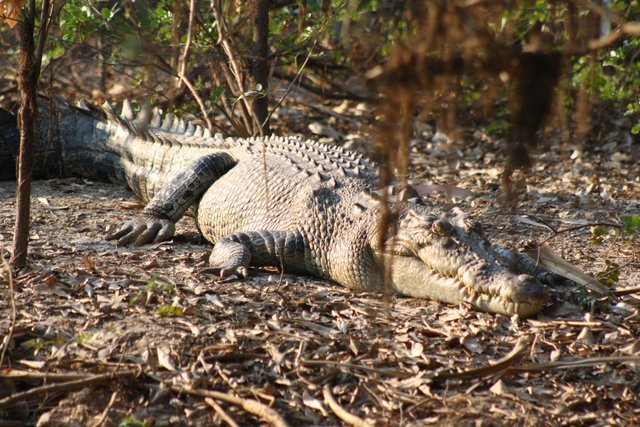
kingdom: Animalia
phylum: Chordata
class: Crocodylia
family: Crocodylidae
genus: Crocodylus
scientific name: Crocodylus porosus
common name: Saltwater crocodile
